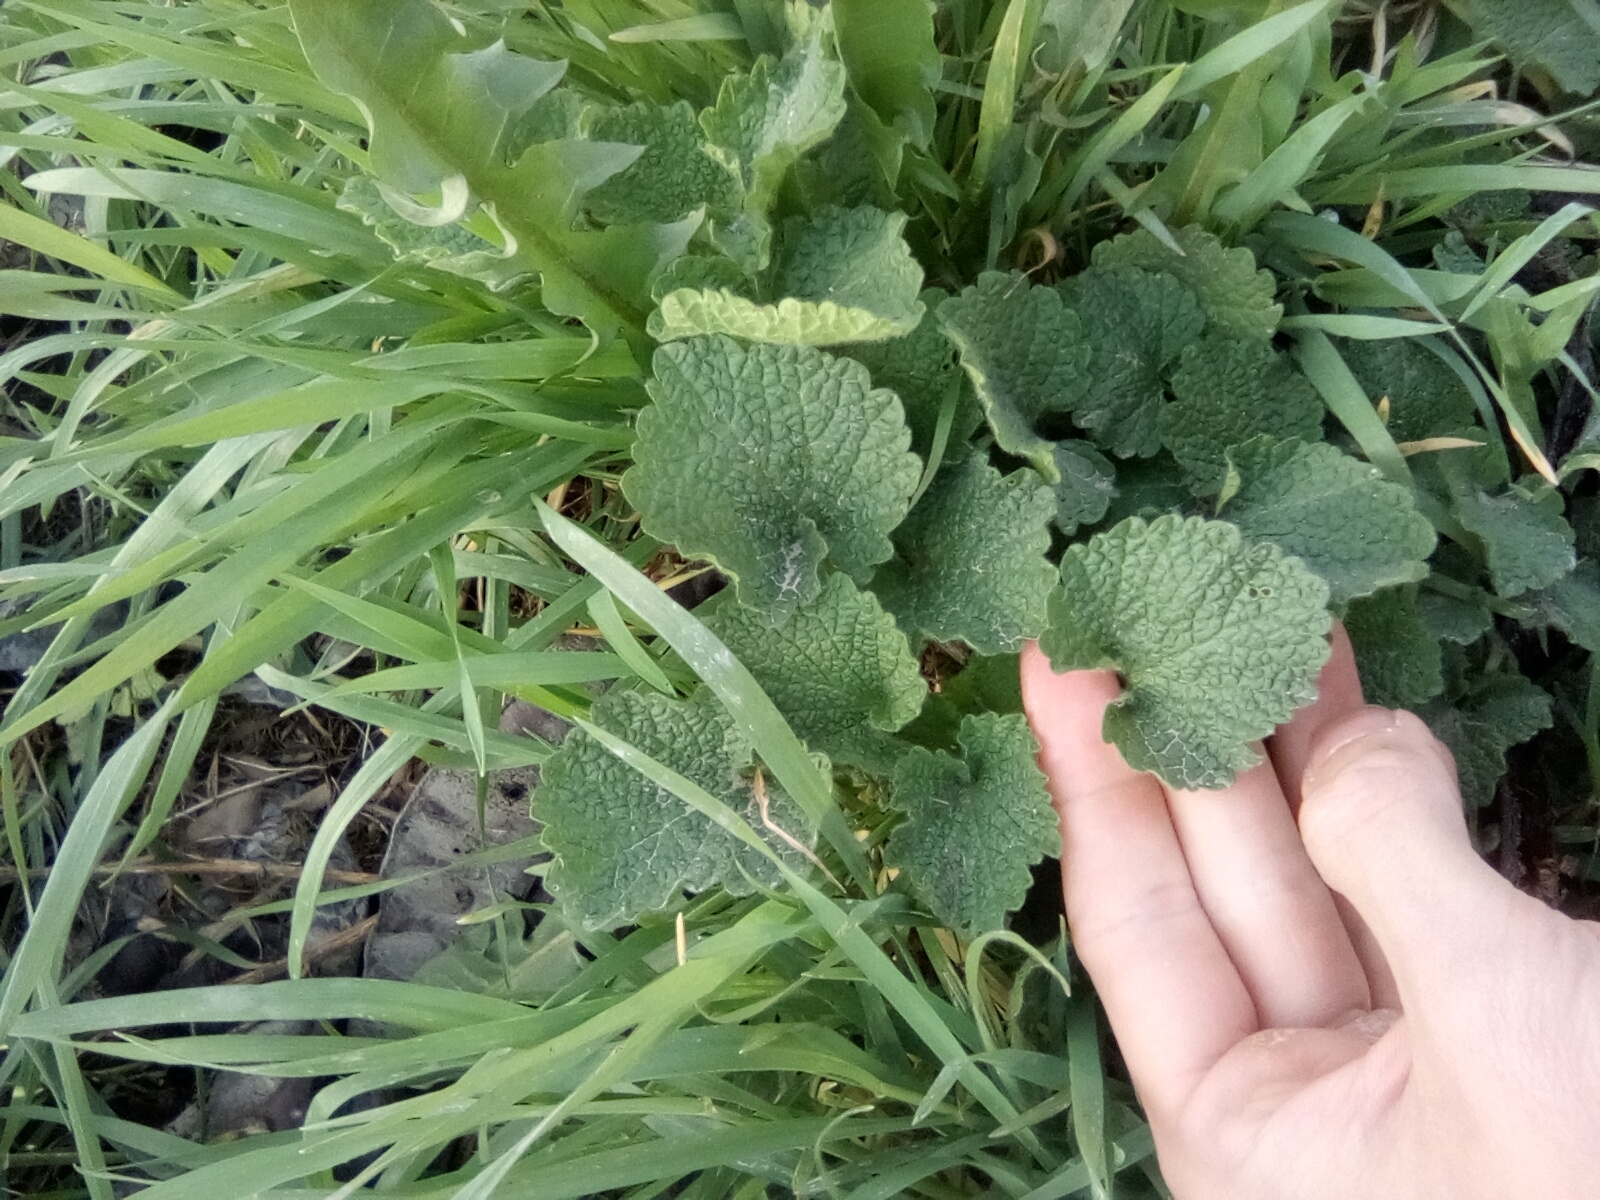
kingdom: Plantae
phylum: Tracheophyta
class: Magnoliopsida
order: Lamiales
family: Lamiaceae
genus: Ballota
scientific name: Ballota nigra
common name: Black horehound
